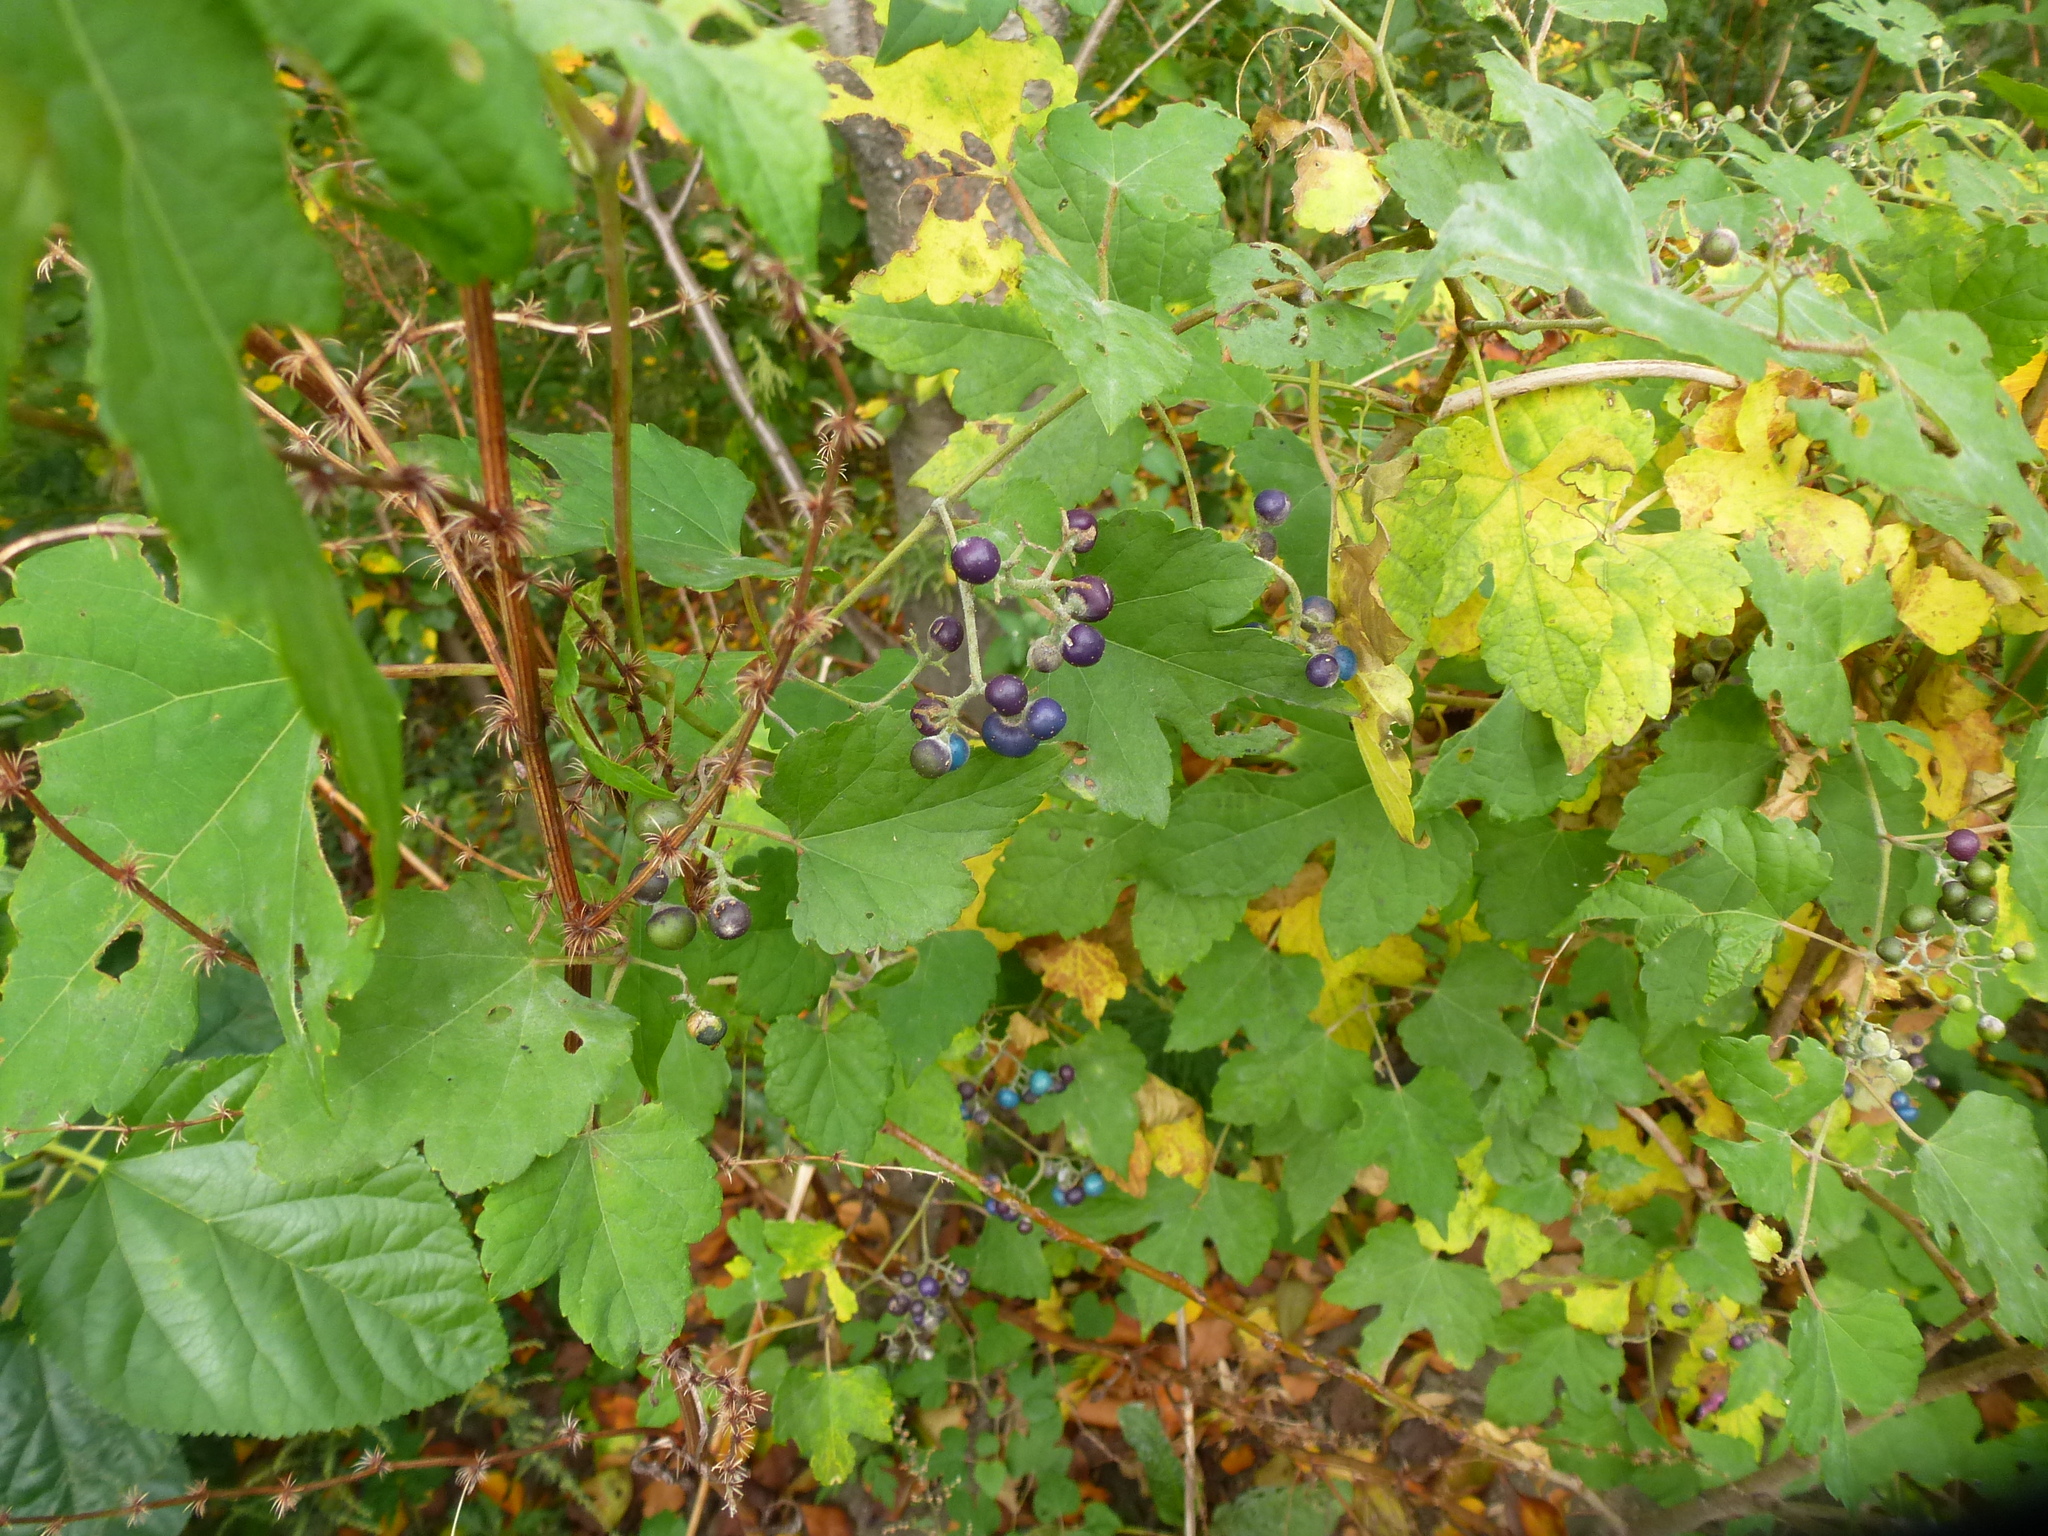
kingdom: Plantae
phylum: Tracheophyta
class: Magnoliopsida
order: Vitales
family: Vitaceae
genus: Ampelopsis
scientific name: Ampelopsis glandulosa
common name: Amur peppervine
